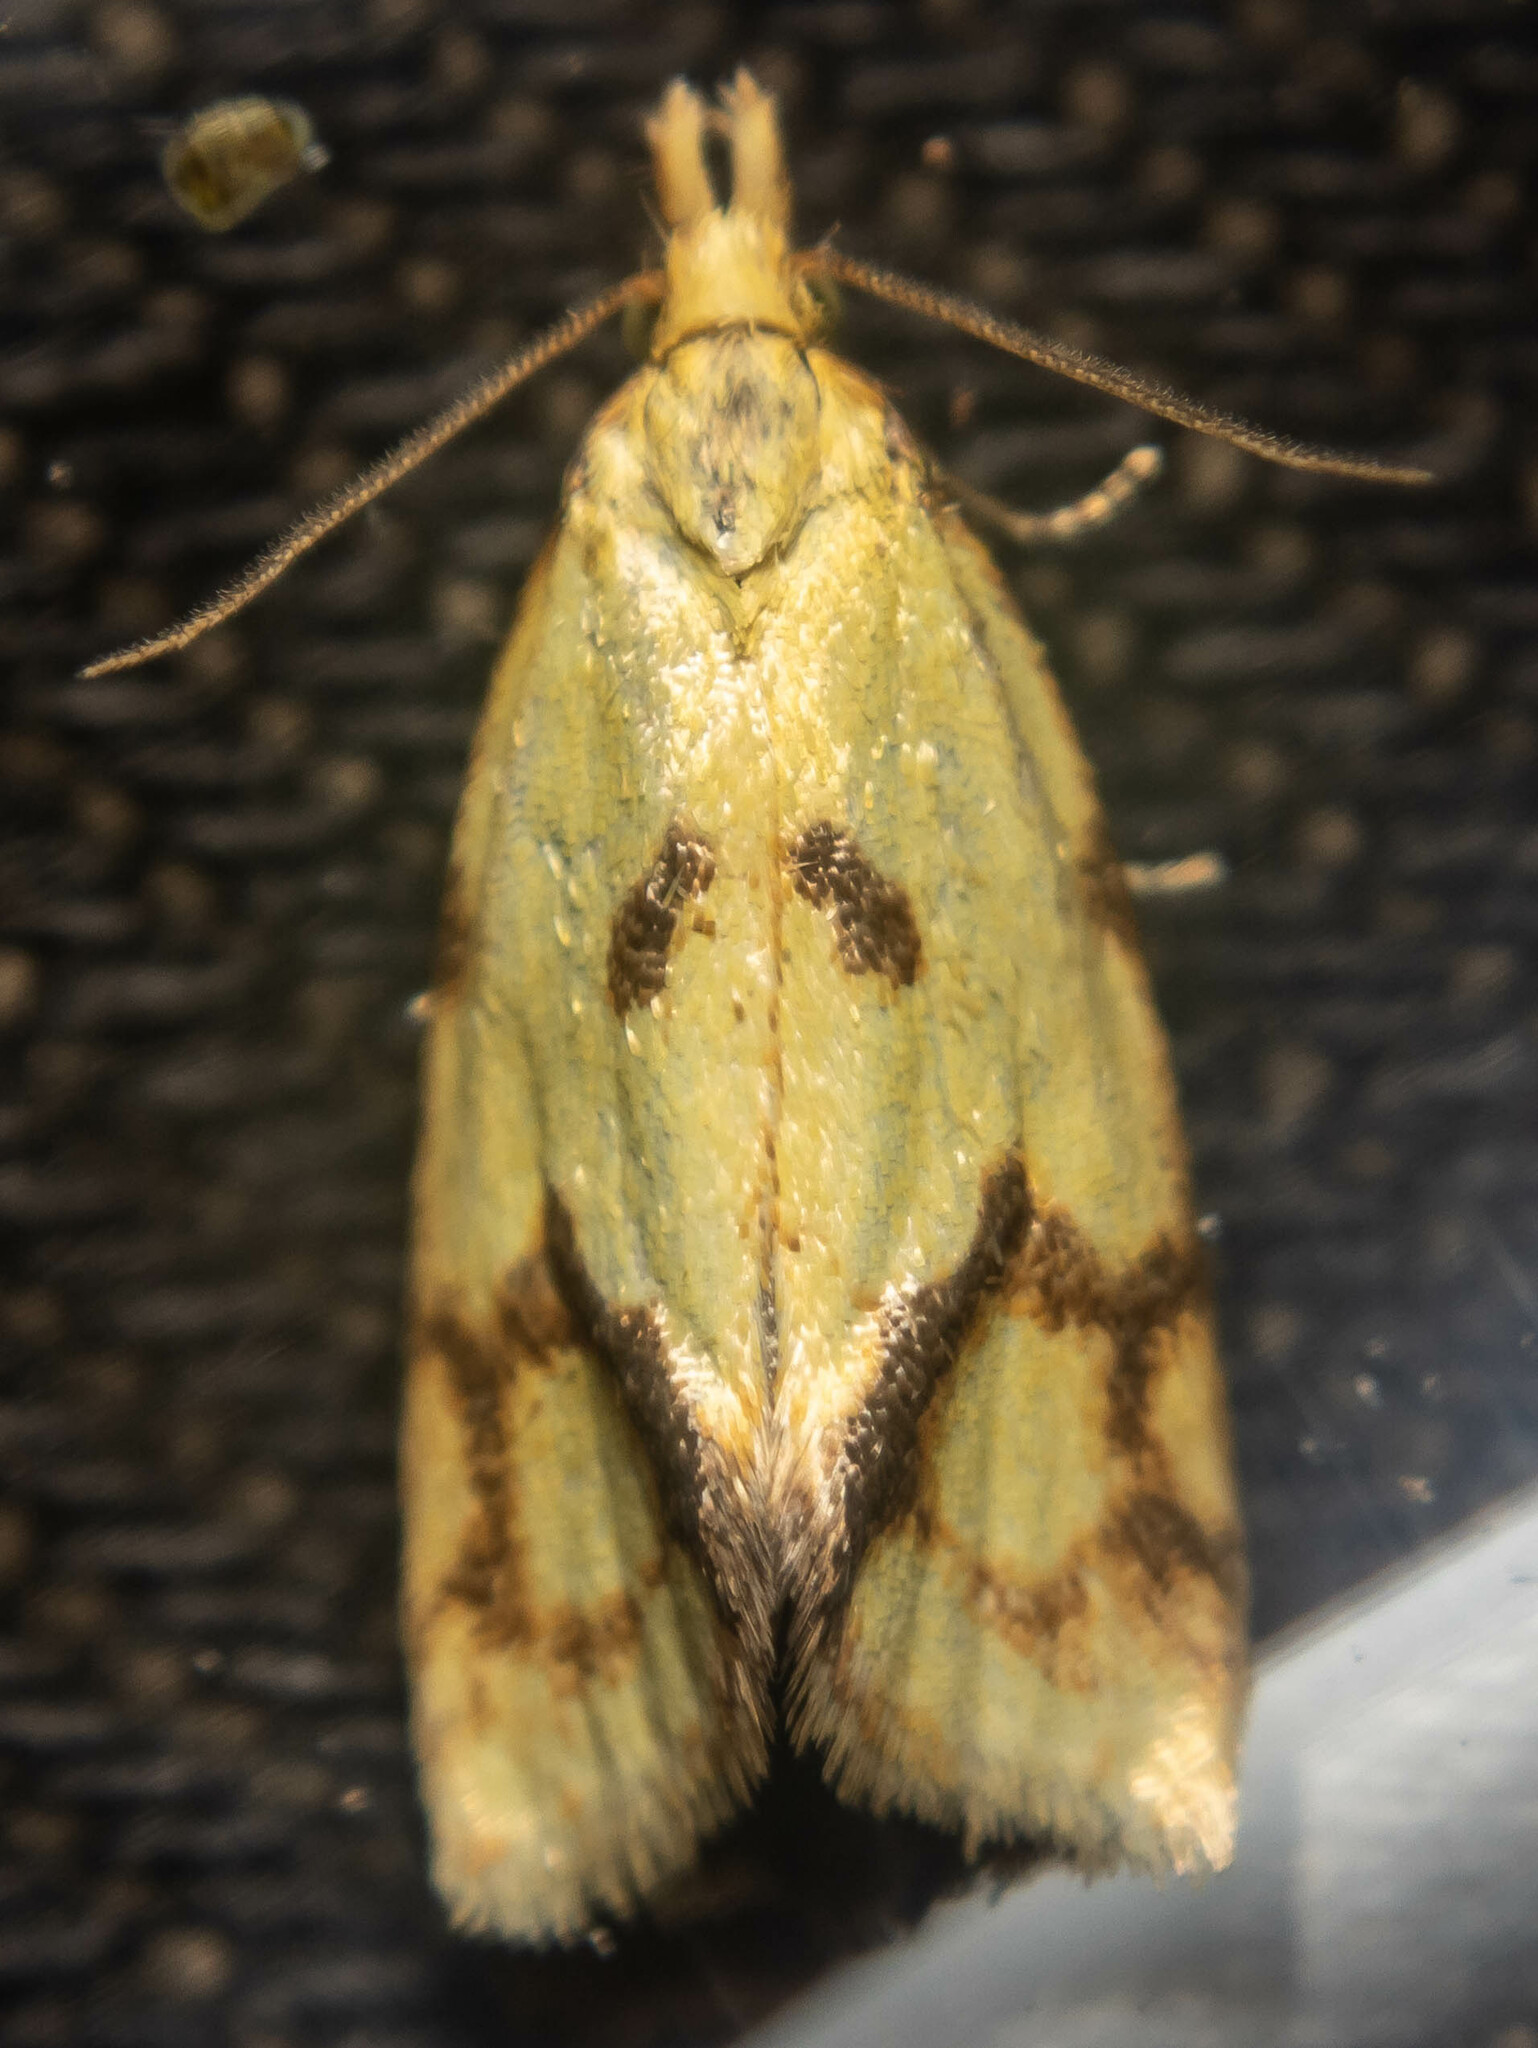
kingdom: Animalia
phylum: Arthropoda
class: Insecta
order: Lepidoptera
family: Tortricidae
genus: Agapeta
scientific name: Agapeta hamana
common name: Common yellow conch
